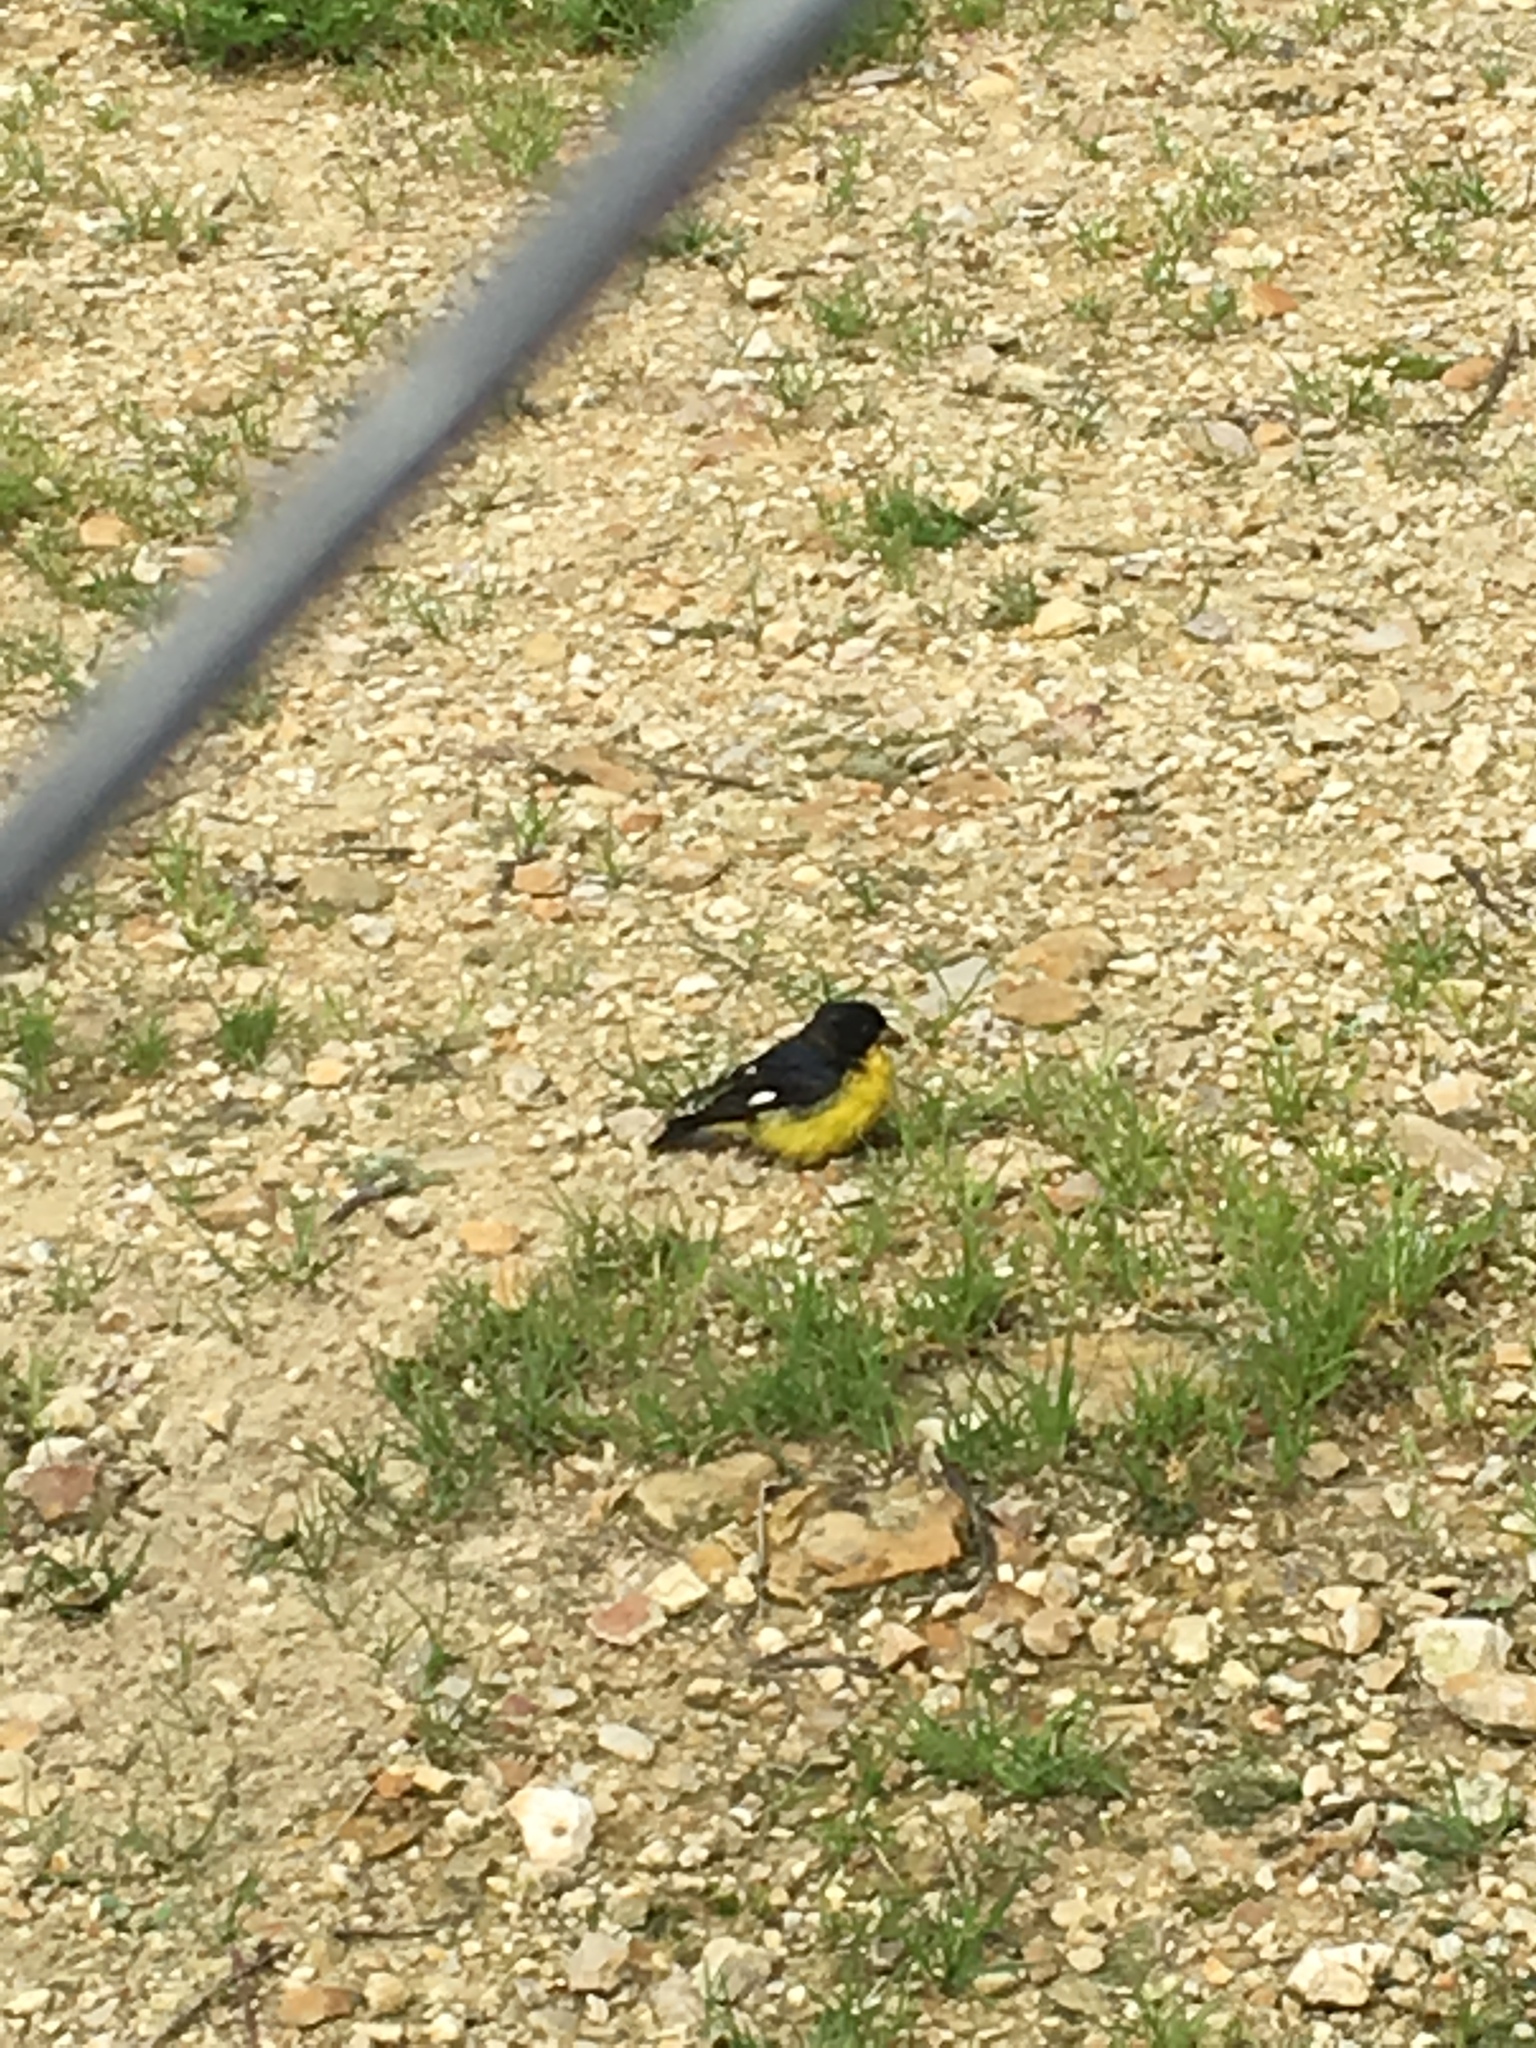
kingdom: Animalia
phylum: Chordata
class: Aves
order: Passeriformes
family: Fringillidae
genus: Spinus
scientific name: Spinus psaltria
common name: Lesser goldfinch
